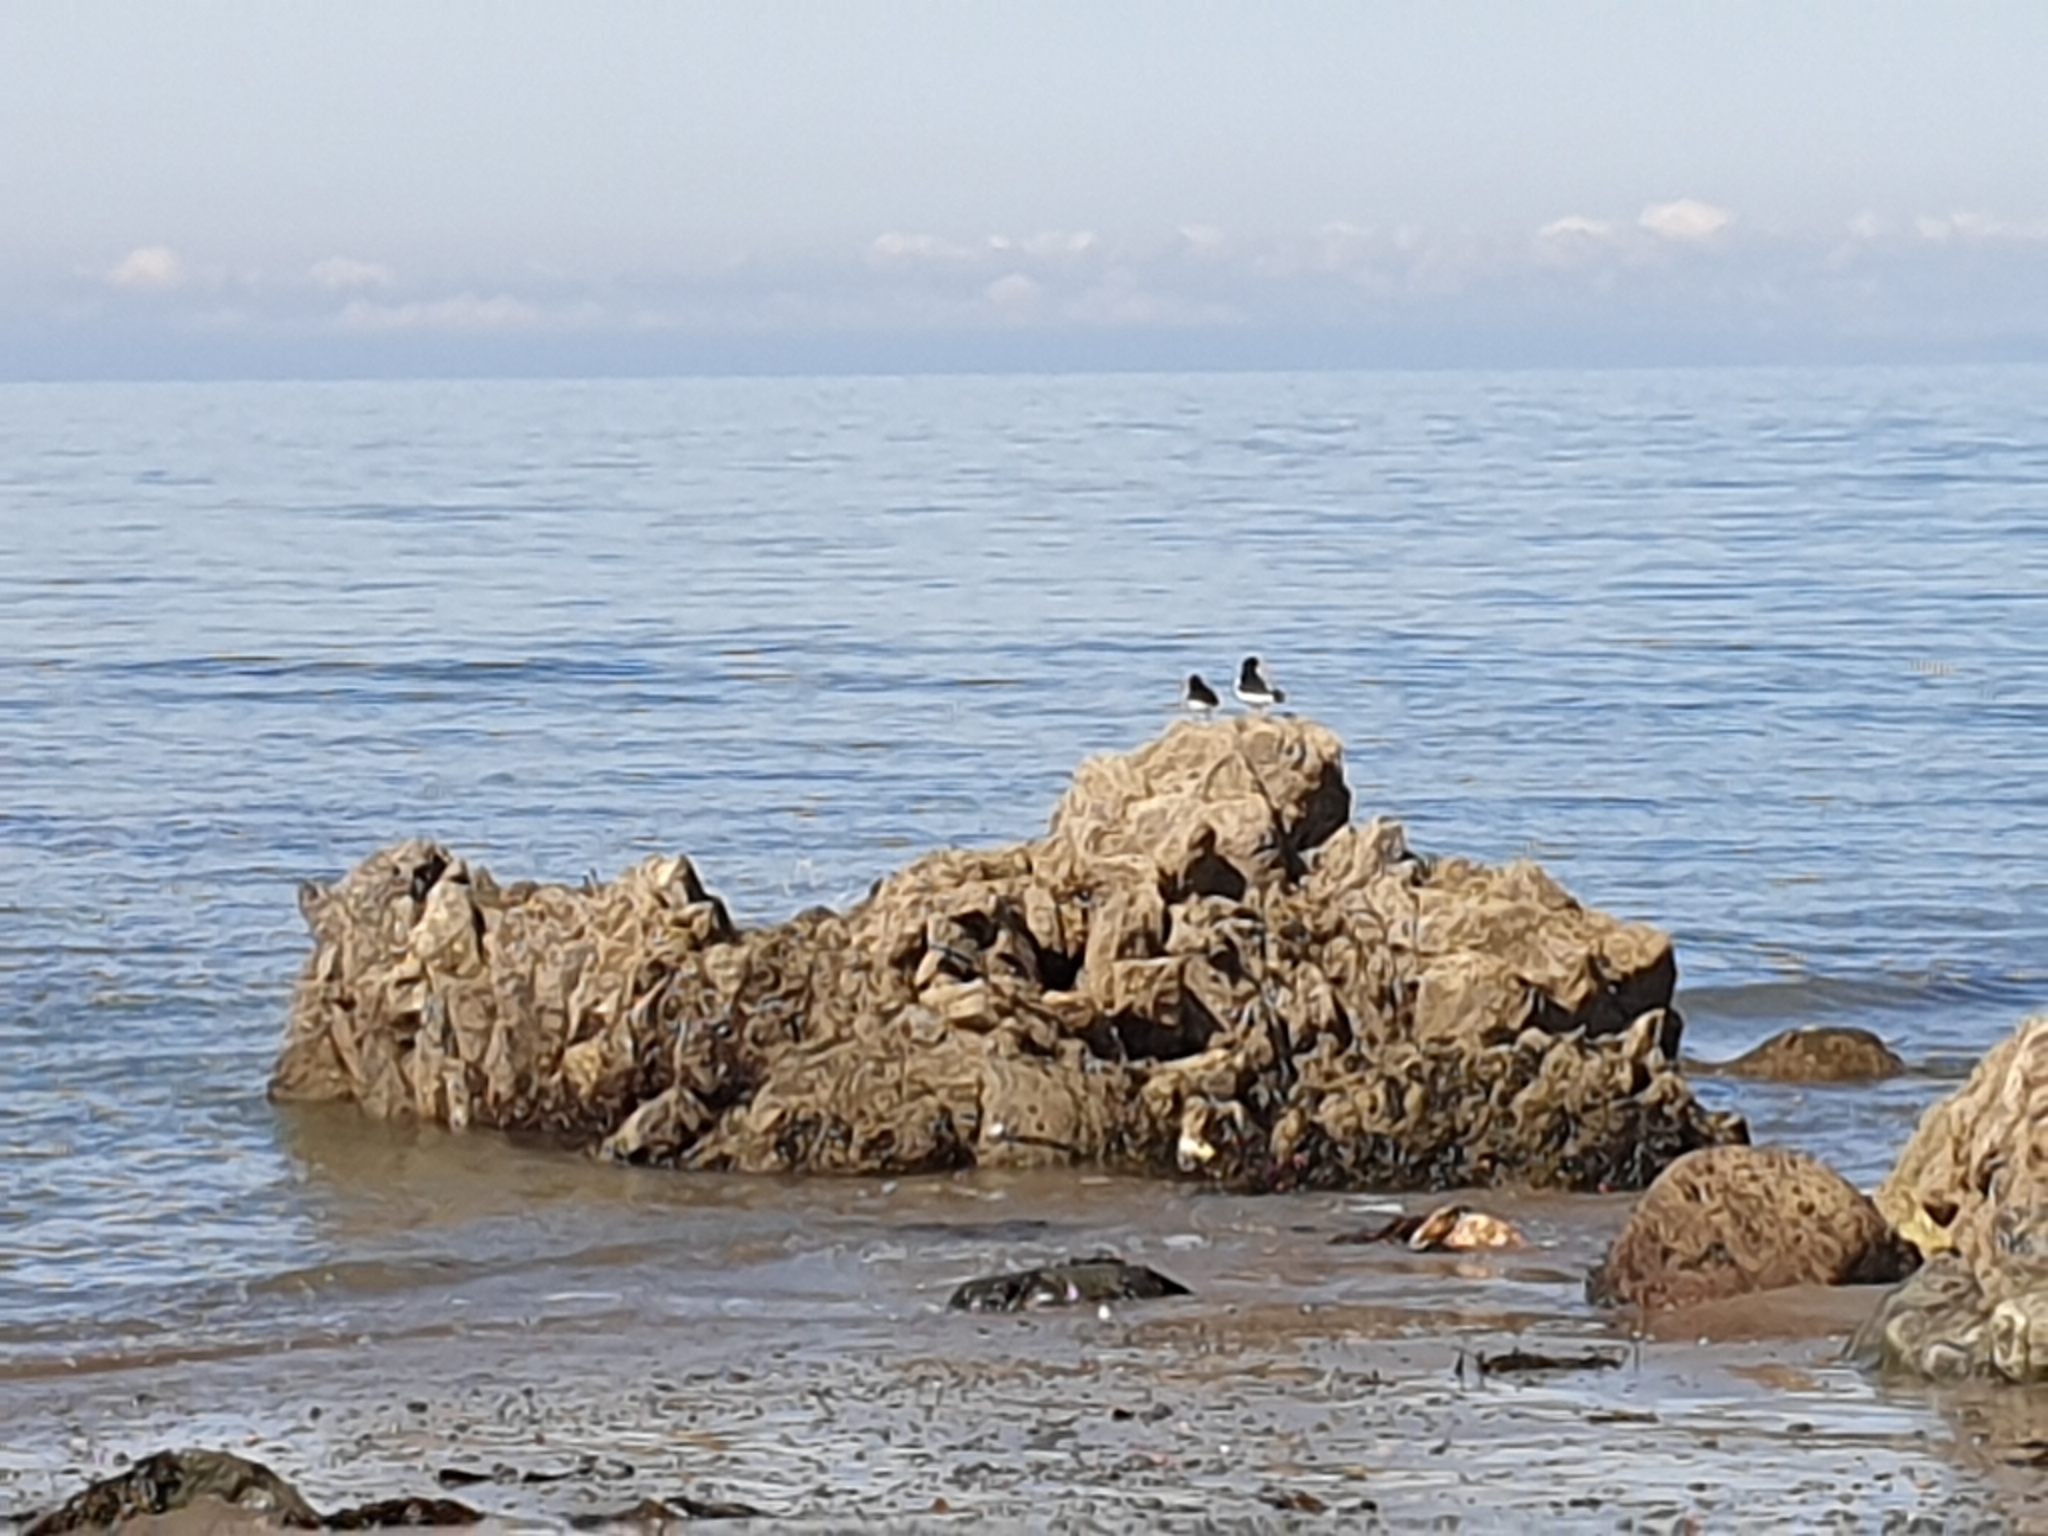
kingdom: Animalia
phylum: Chordata
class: Aves
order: Charadriiformes
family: Haematopodidae
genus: Haematopus
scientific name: Haematopus ostralegus
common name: Eurasian oystercatcher
